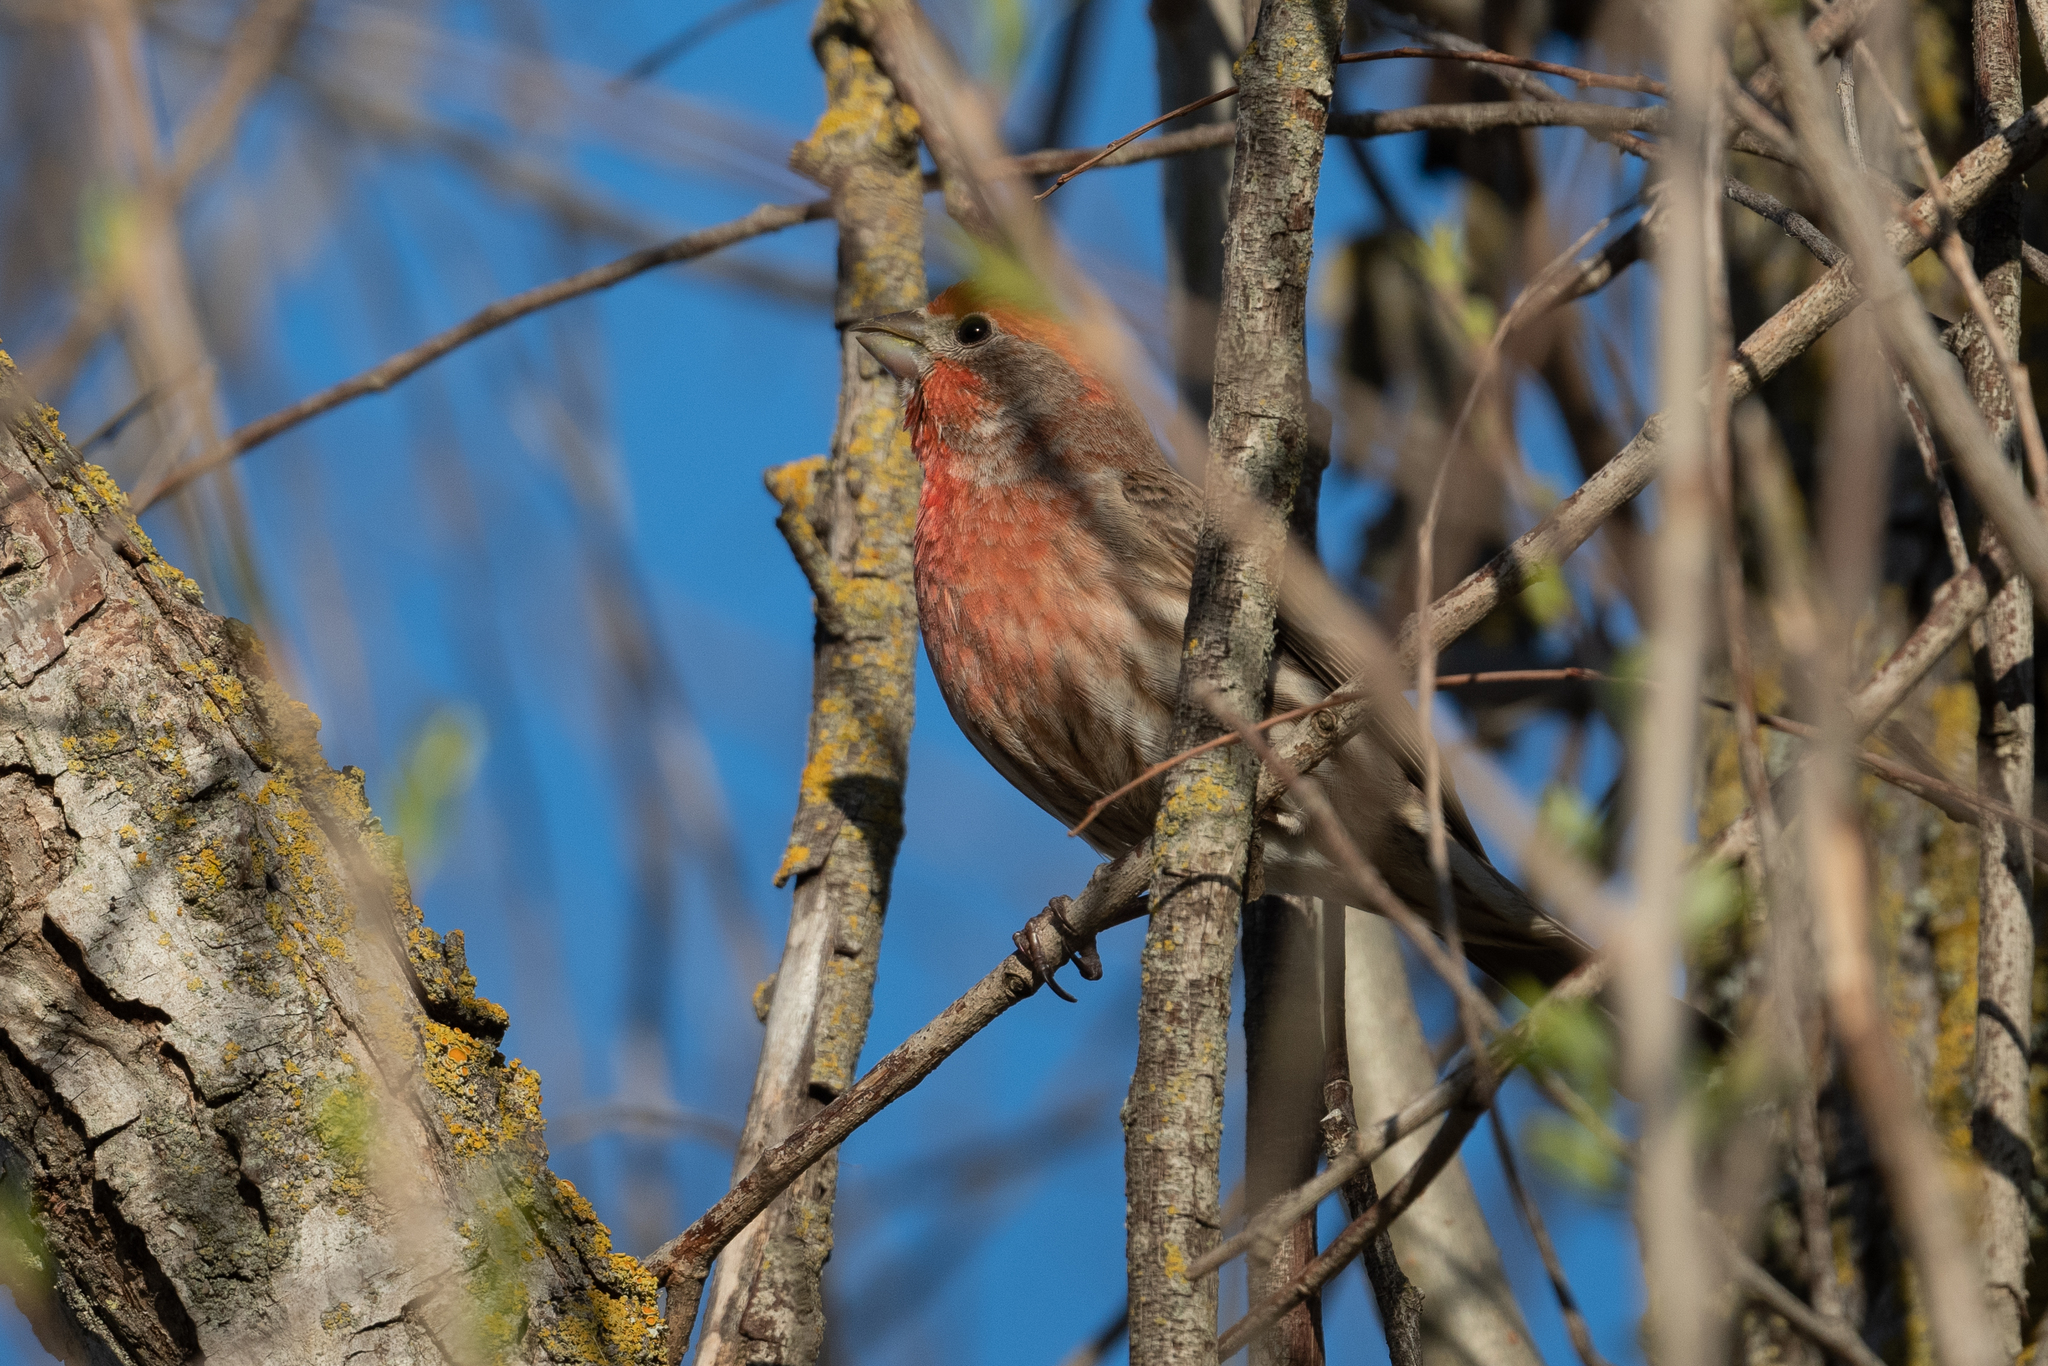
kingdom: Animalia
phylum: Chordata
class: Aves
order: Passeriformes
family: Fringillidae
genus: Haemorhous
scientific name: Haemorhous mexicanus
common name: House finch
